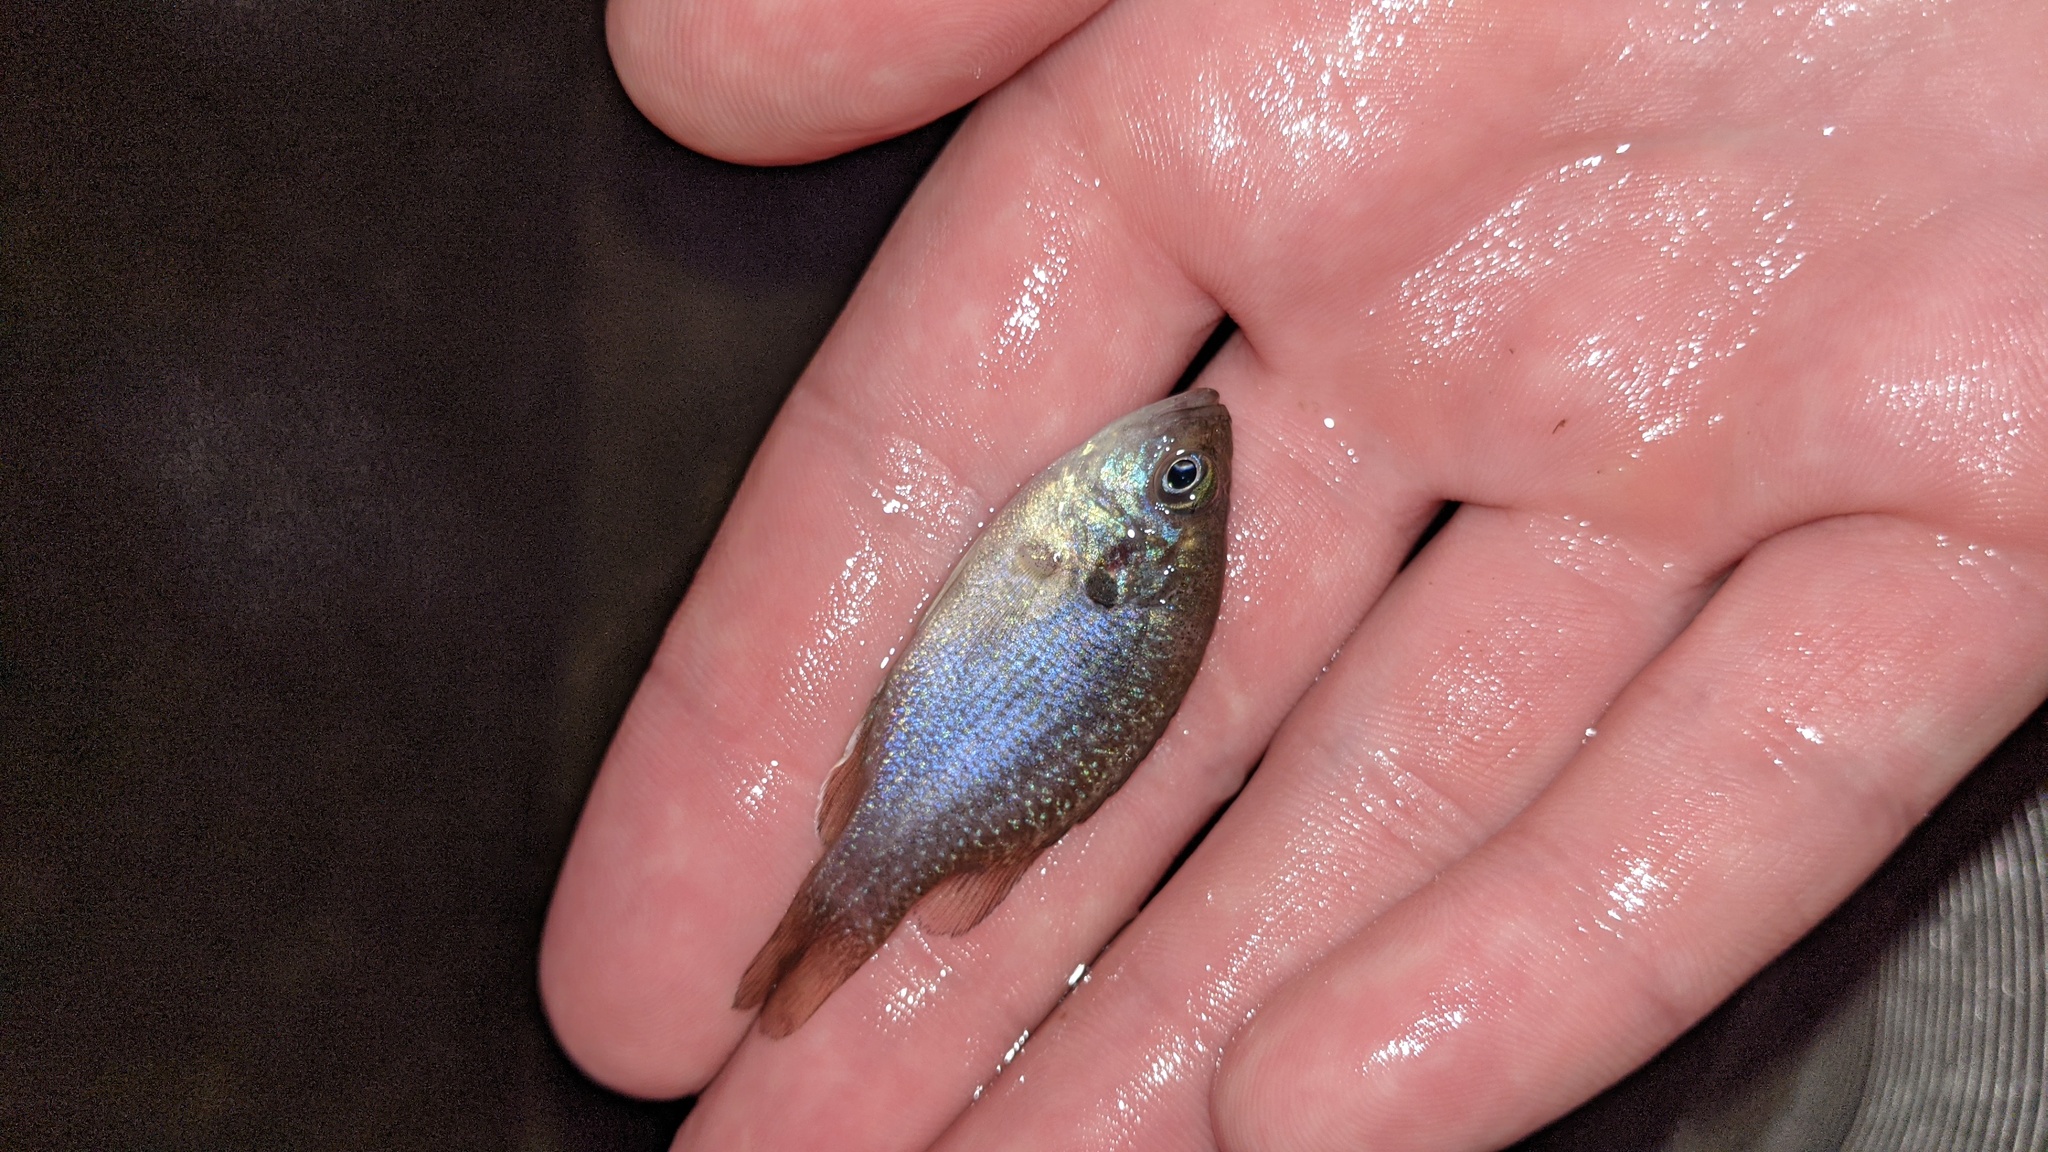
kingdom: Animalia
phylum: Chordata
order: Perciformes
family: Centrarchidae
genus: Lepomis
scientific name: Lepomis cyanellus
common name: Green sunfish
